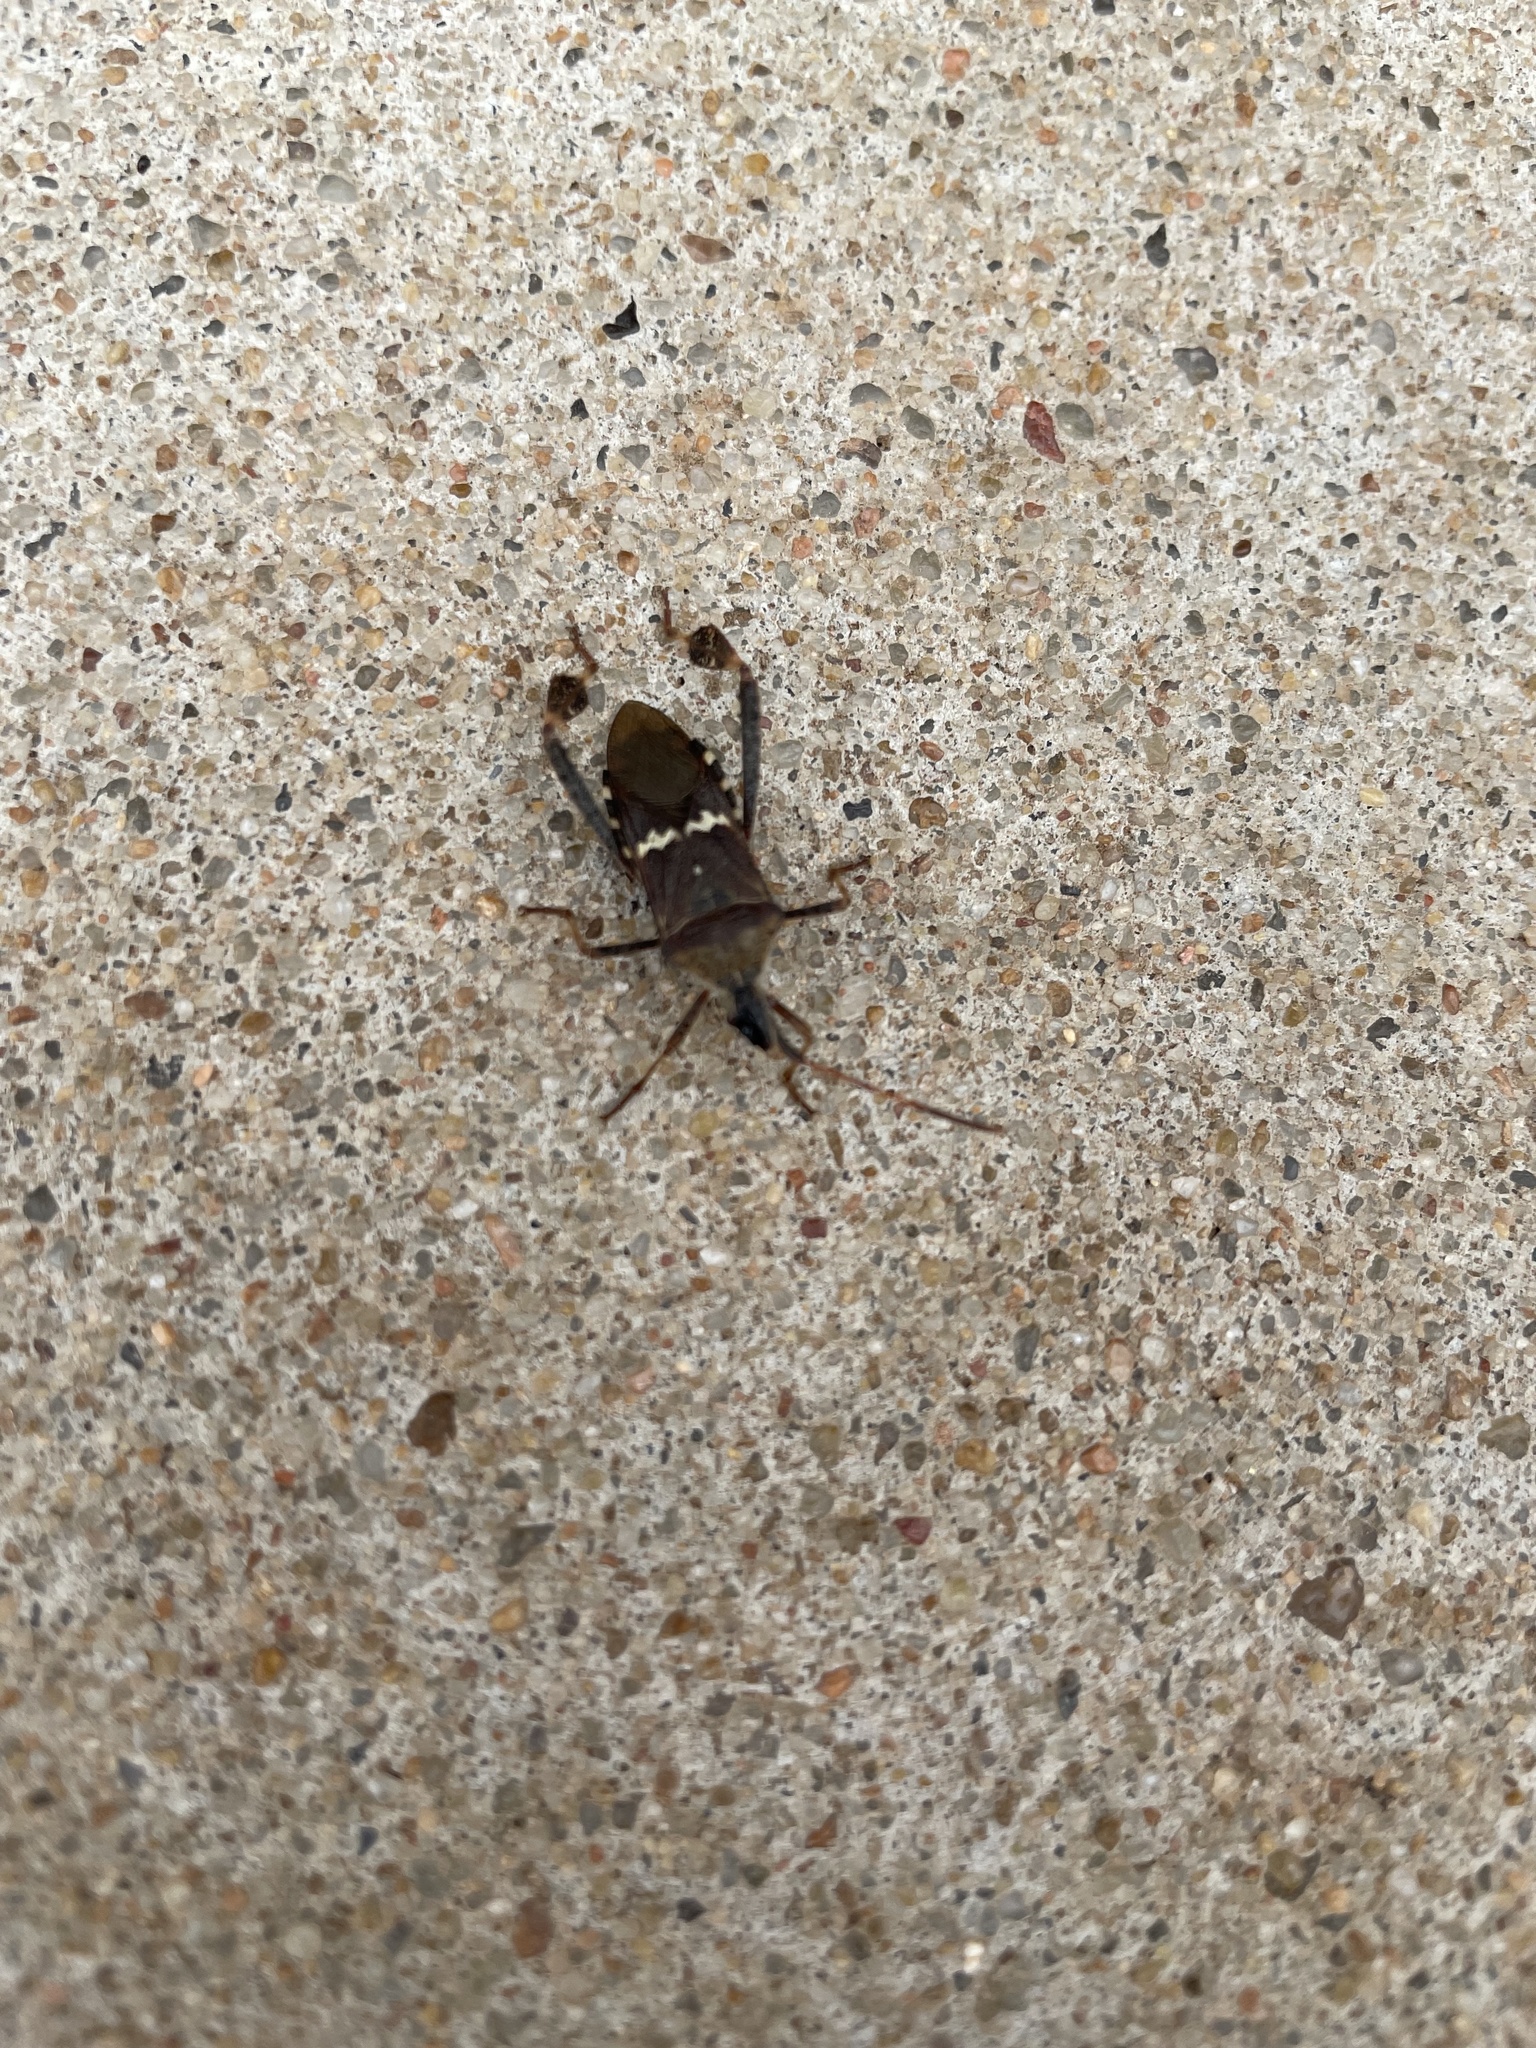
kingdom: Animalia
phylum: Arthropoda
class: Insecta
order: Hemiptera
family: Coreidae
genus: Leptoglossus
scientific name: Leptoglossus clypealis
